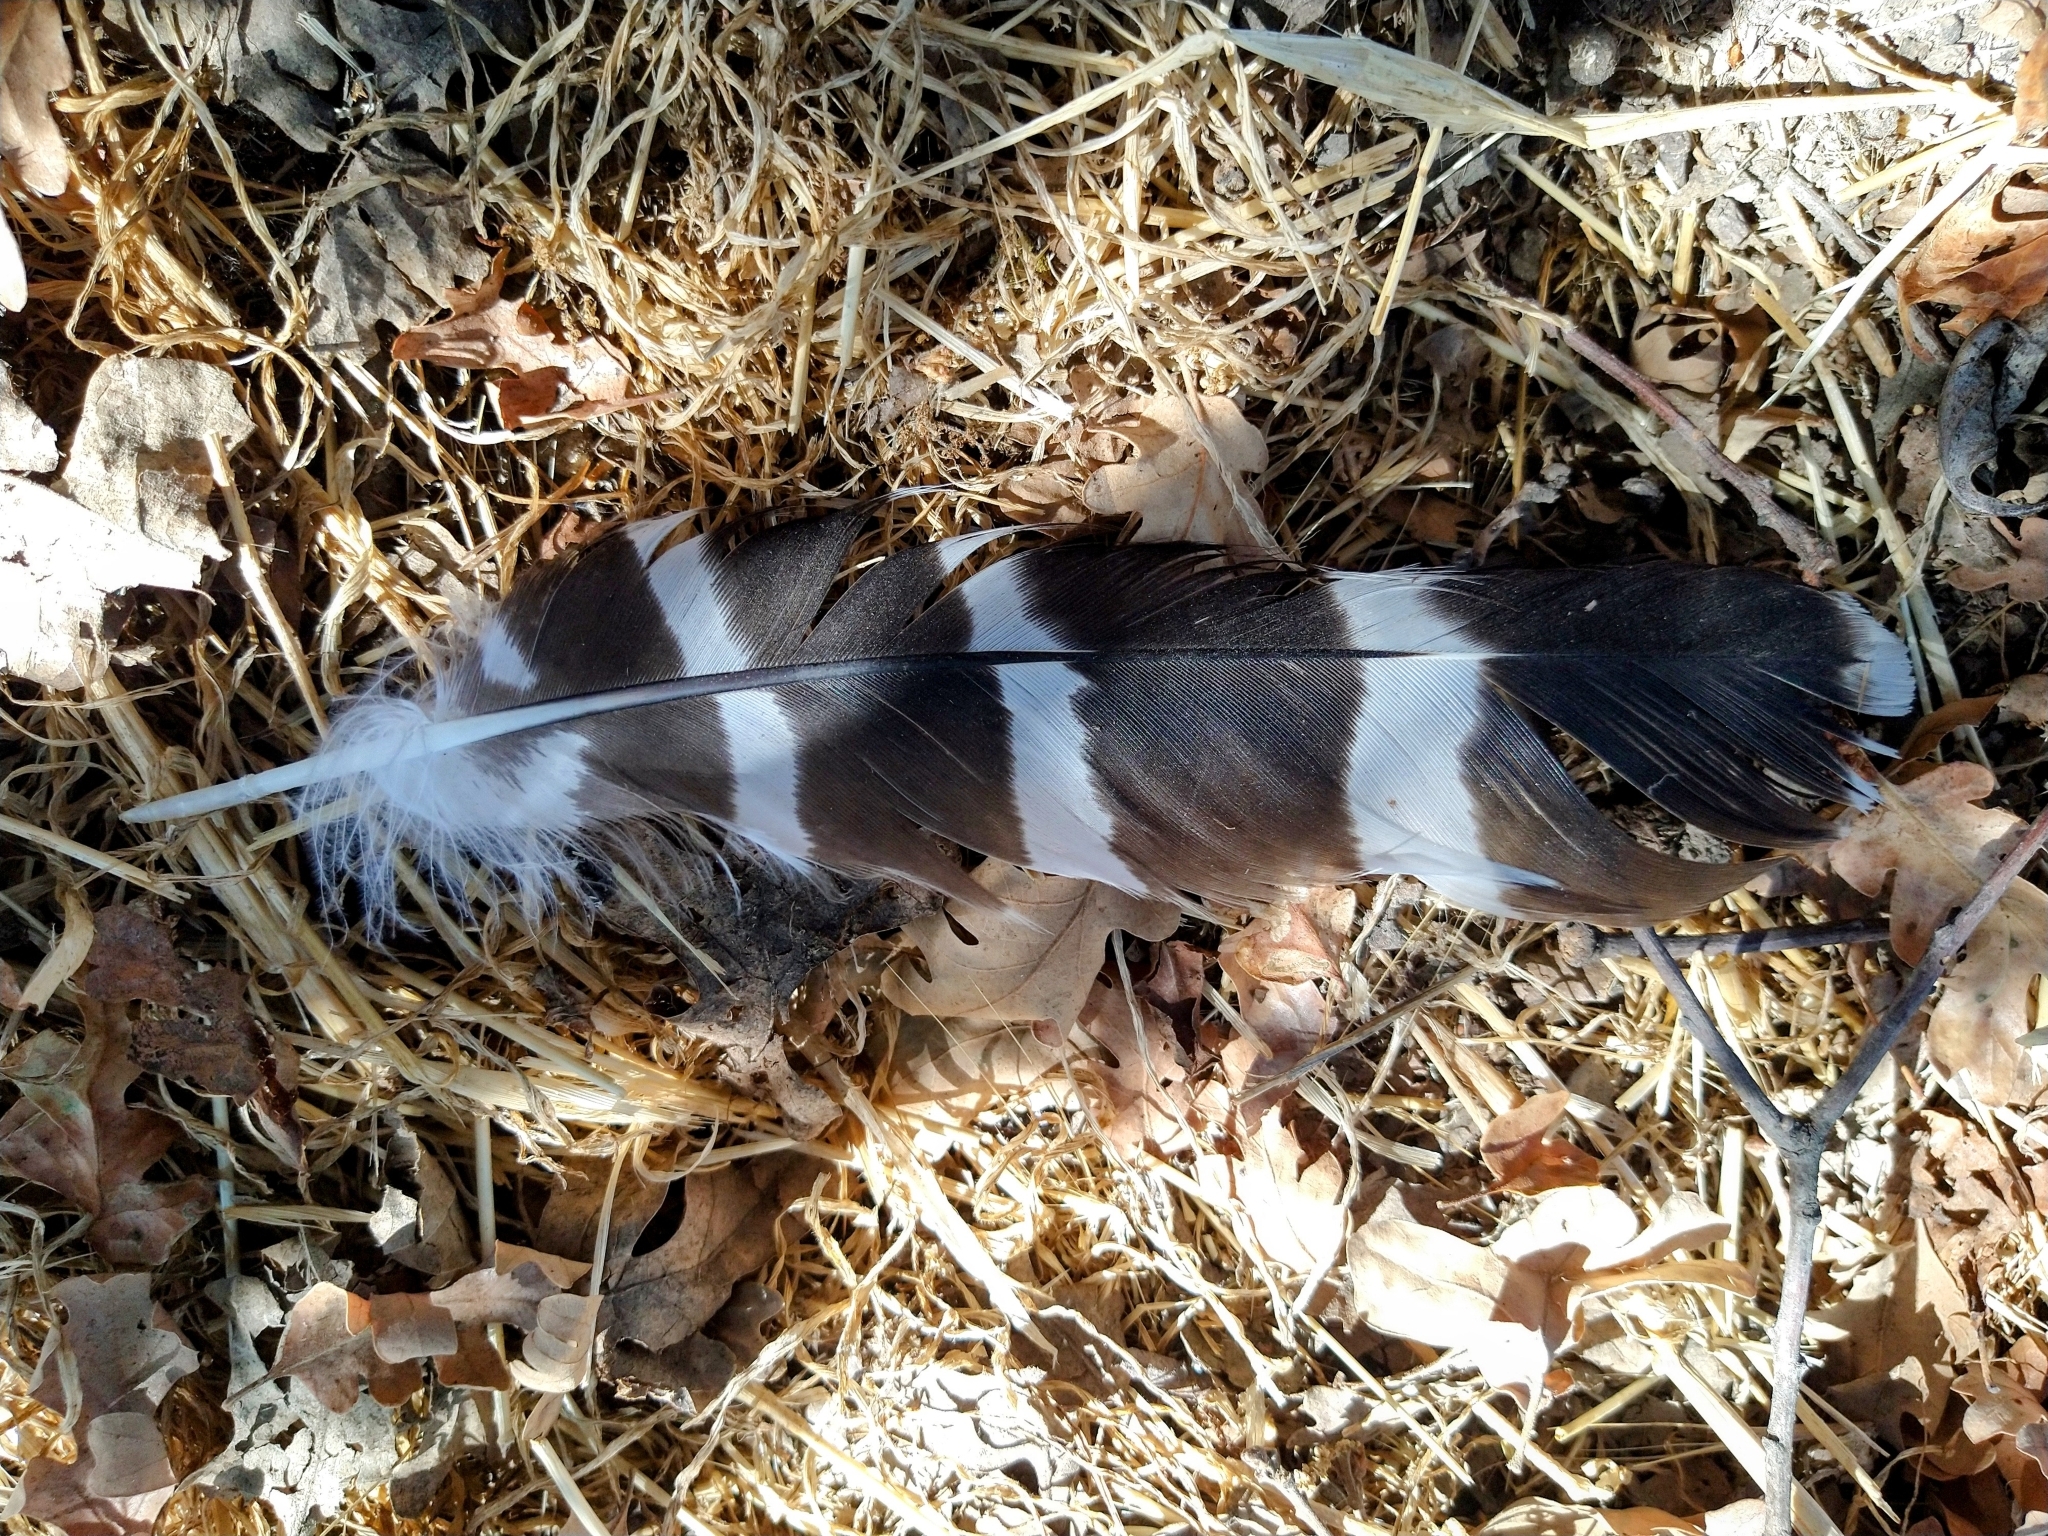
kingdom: Animalia
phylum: Chordata
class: Aves
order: Accipitriformes
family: Accipitridae
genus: Buteo
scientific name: Buteo lineatus
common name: Red-shouldered hawk
